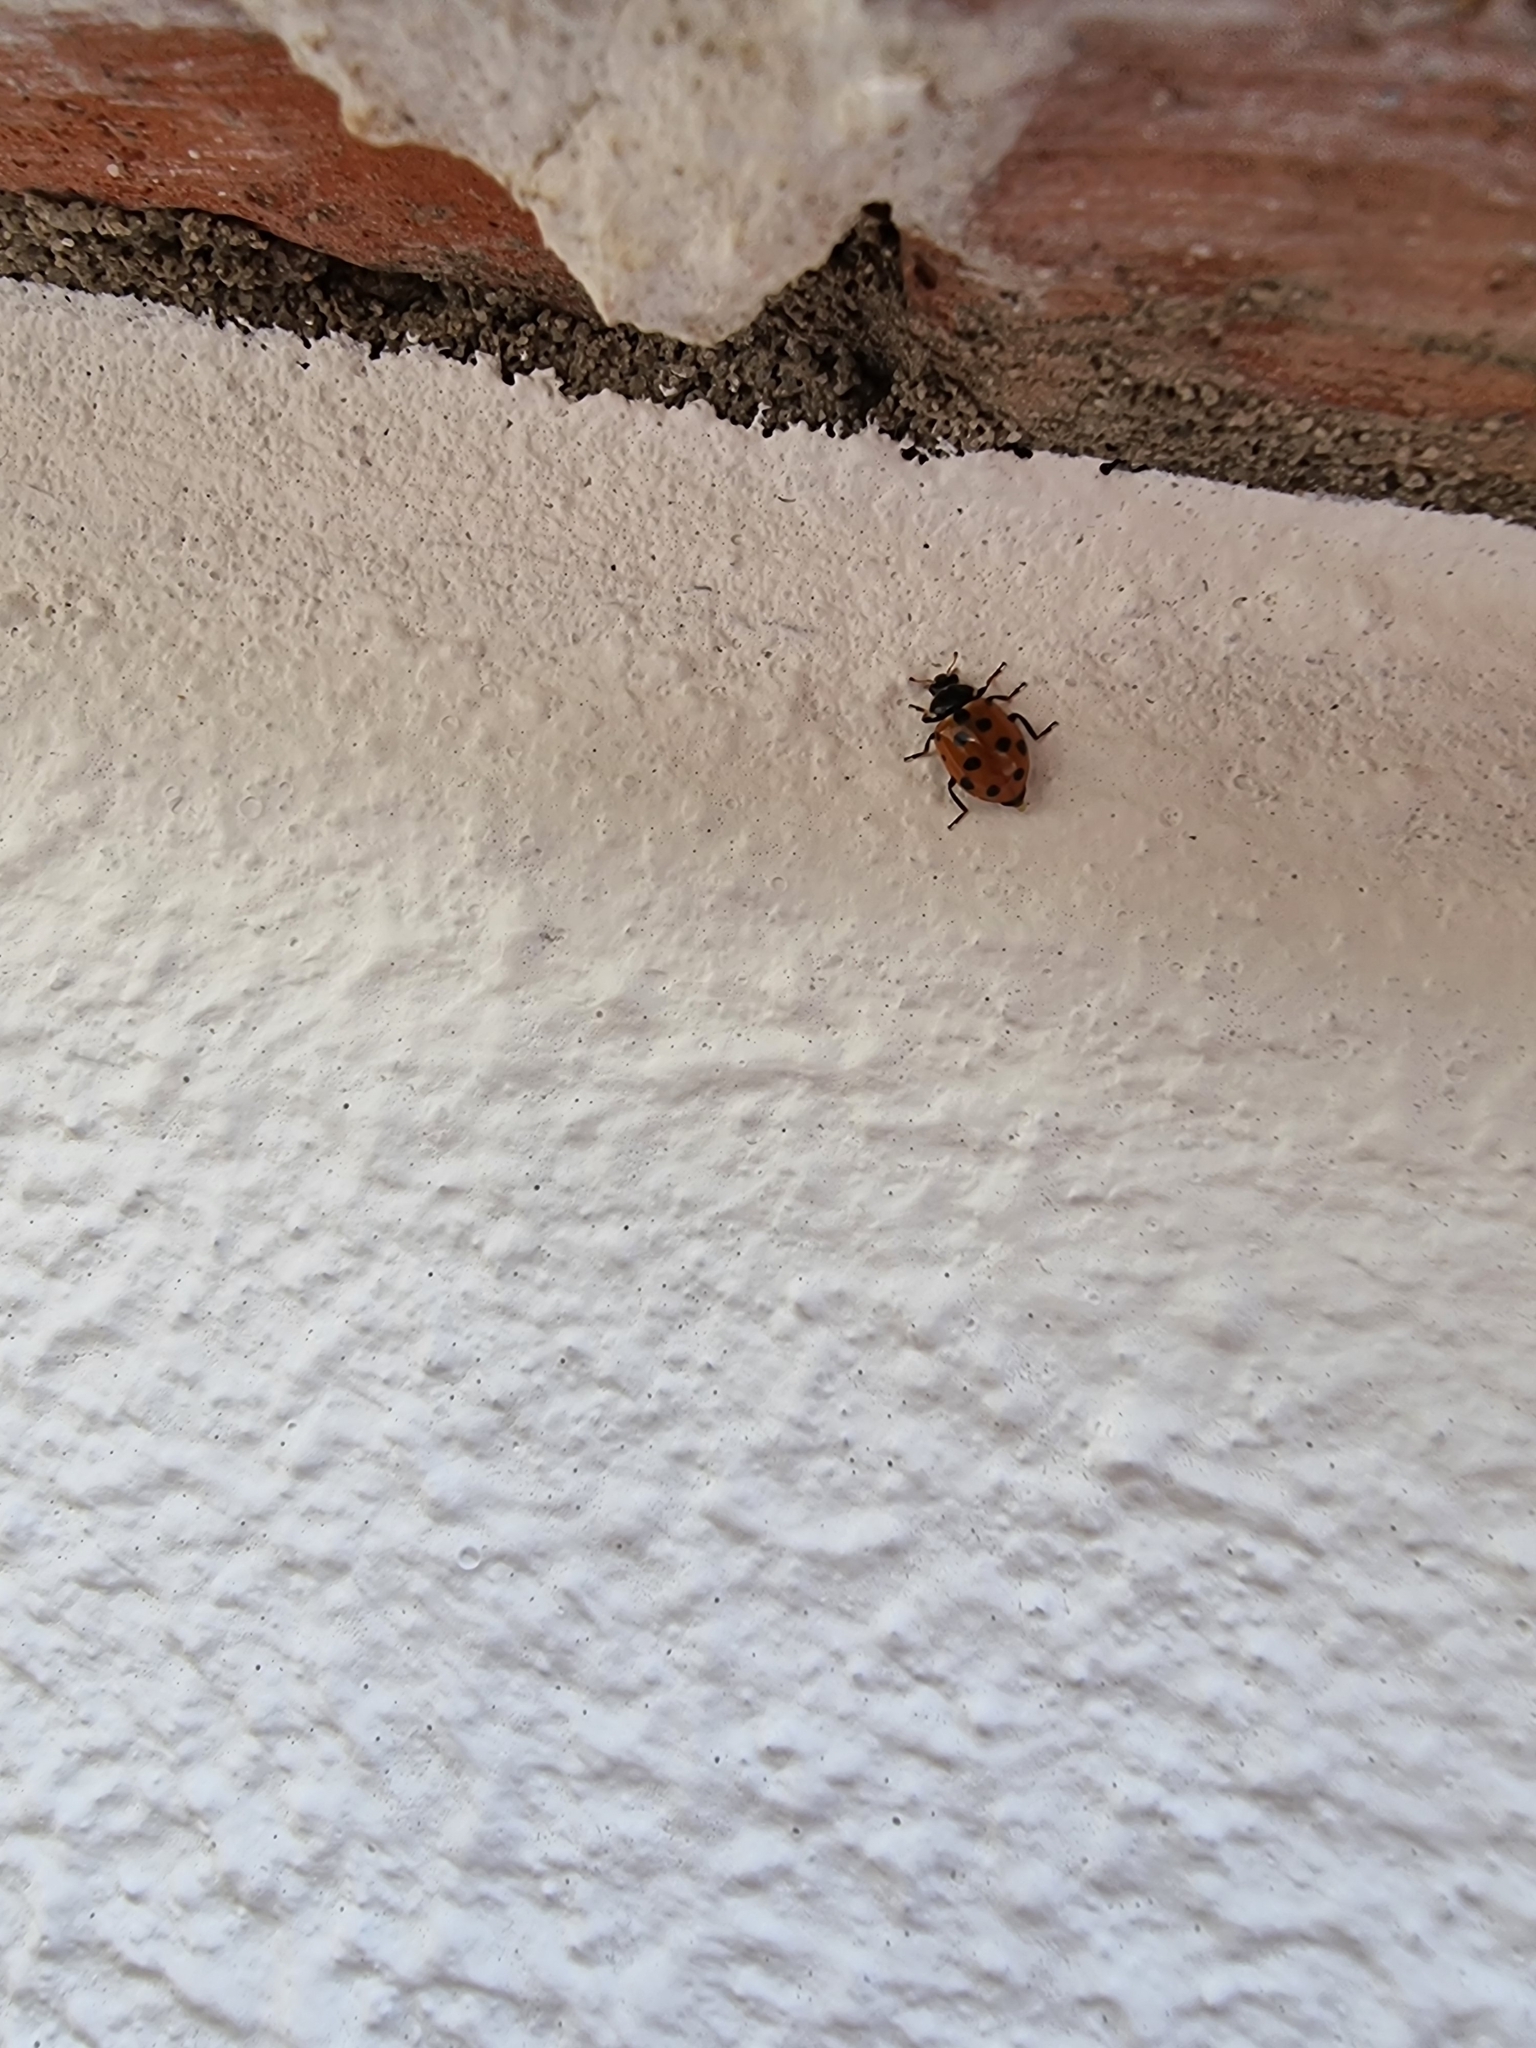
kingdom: Animalia
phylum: Arthropoda
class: Insecta
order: Coleoptera
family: Coccinellidae
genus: Hippodamia
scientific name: Hippodamia variegata
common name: Ladybird beetle
